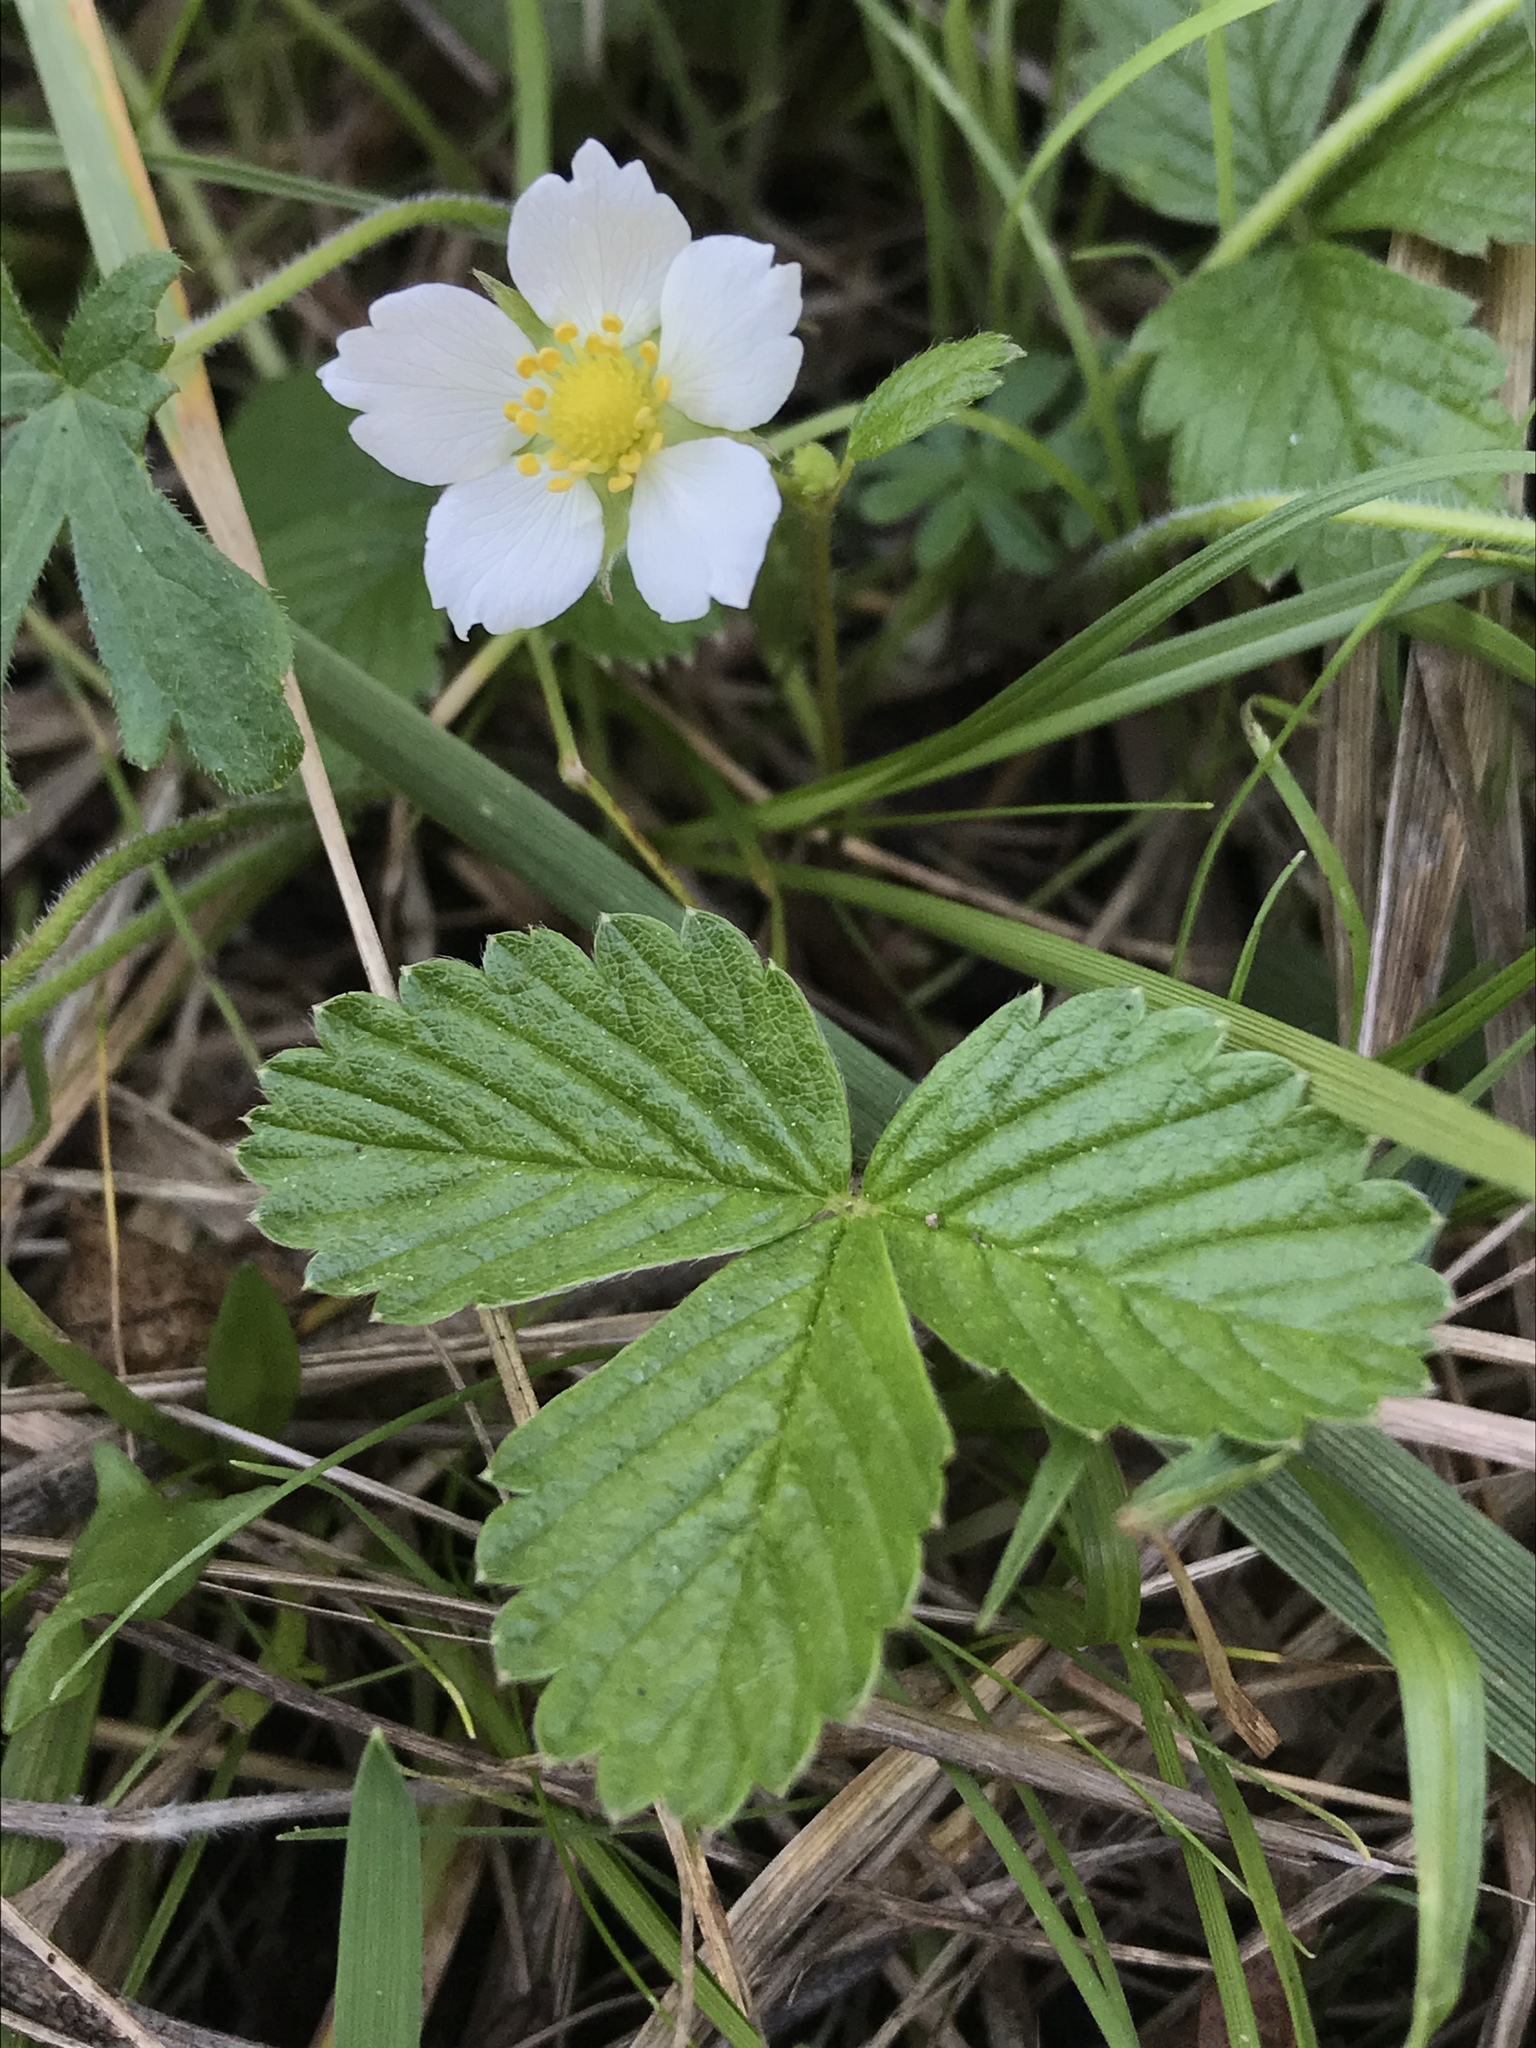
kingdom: Plantae
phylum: Tracheophyta
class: Magnoliopsida
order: Rosales
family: Rosaceae
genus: Fragaria
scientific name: Fragaria vesca
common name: Wild strawberry
